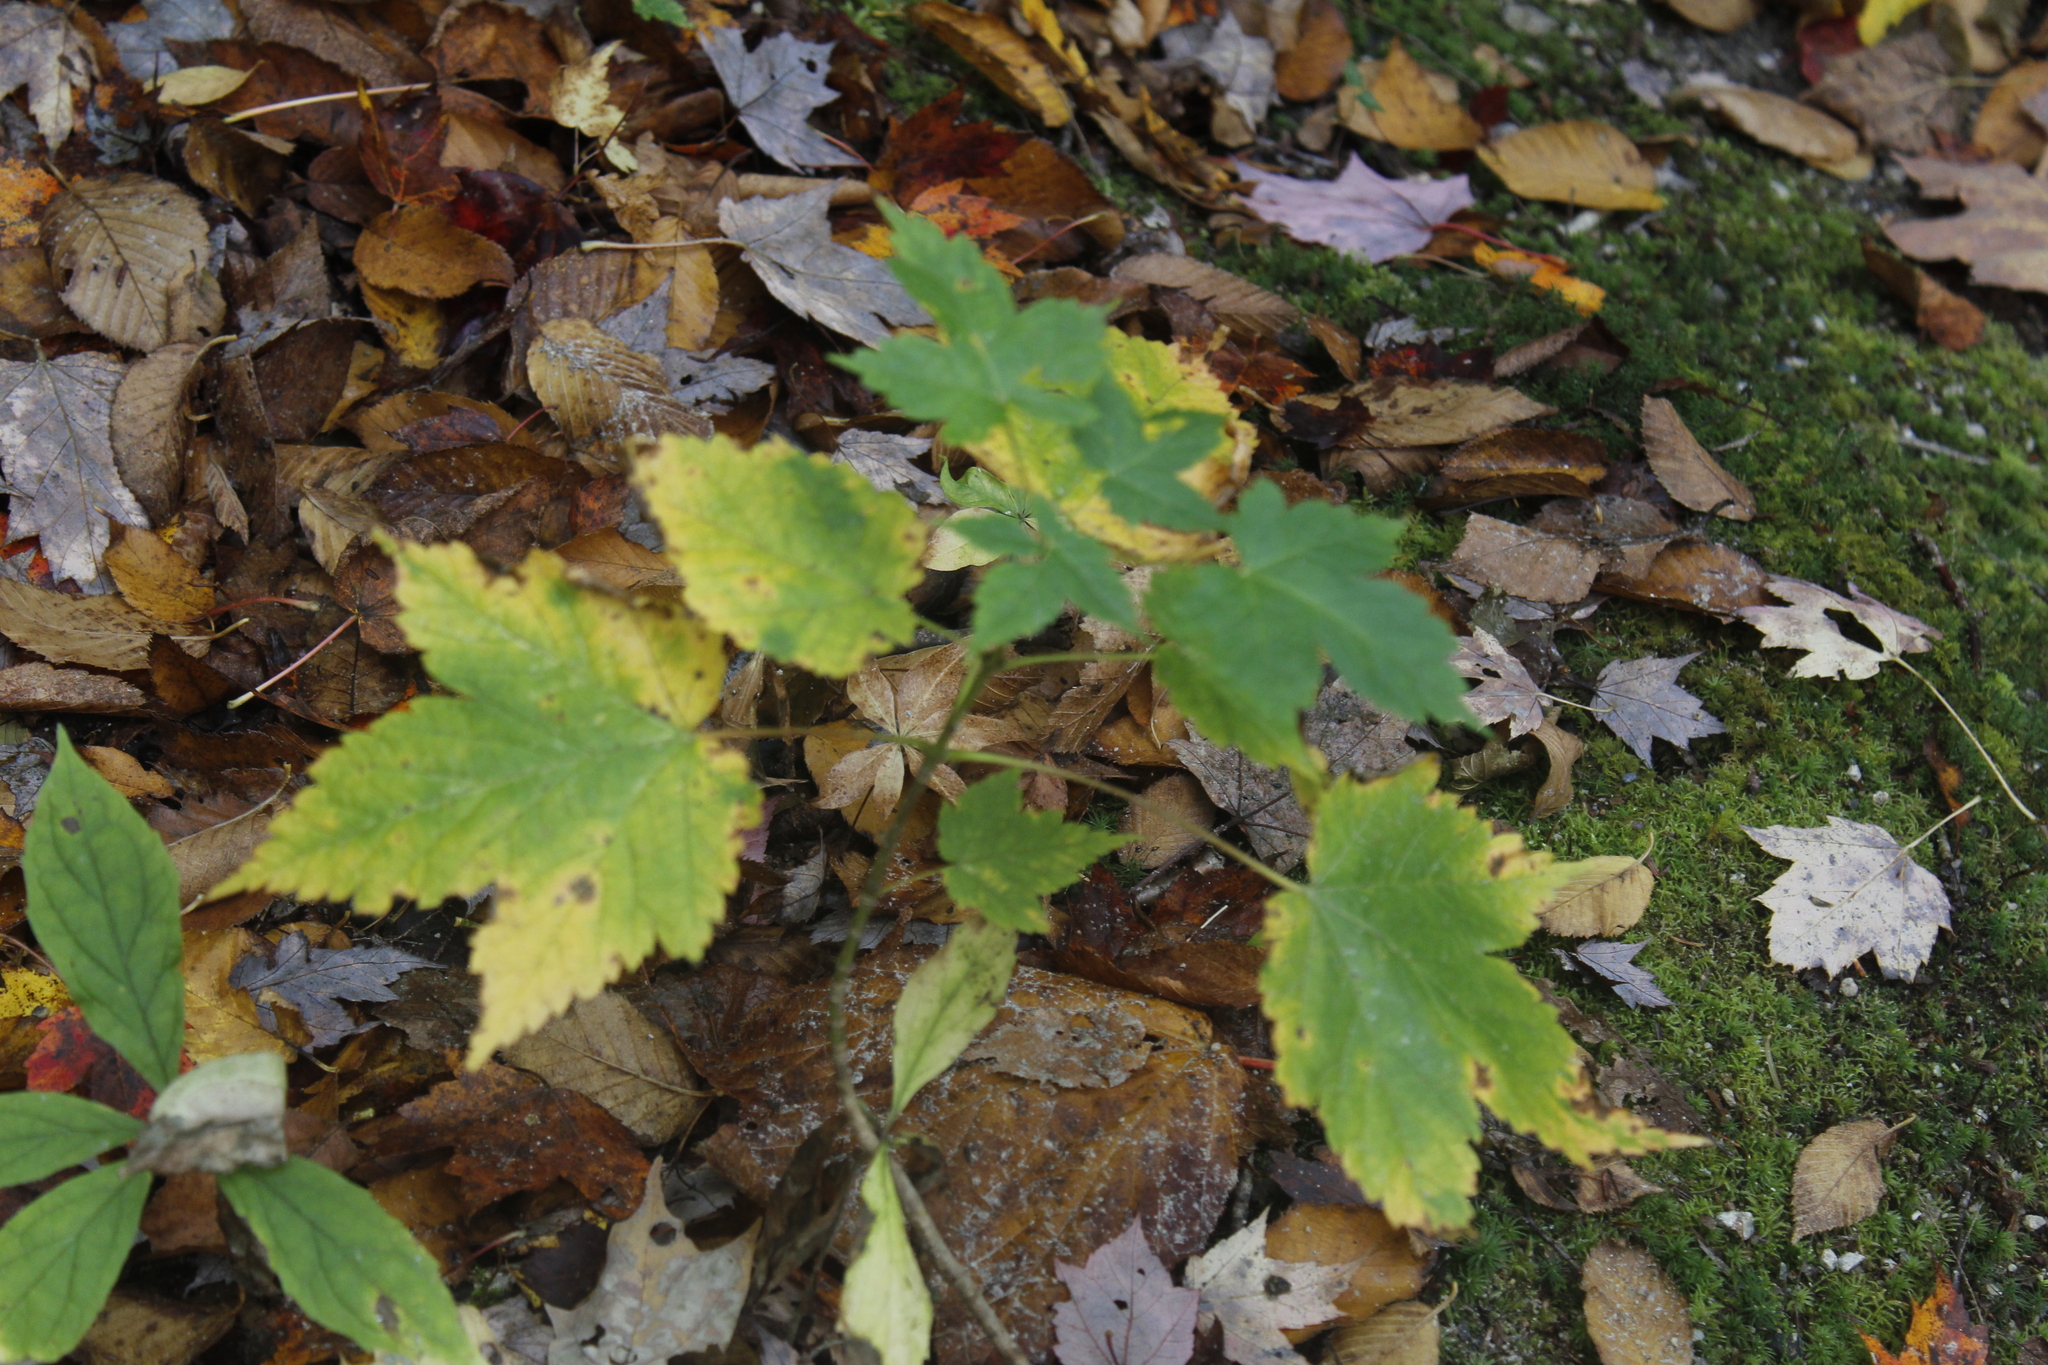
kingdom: Plantae
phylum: Tracheophyta
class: Magnoliopsida
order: Sapindales
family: Sapindaceae
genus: Acer
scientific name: Acer spicatum
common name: Mountain maple
